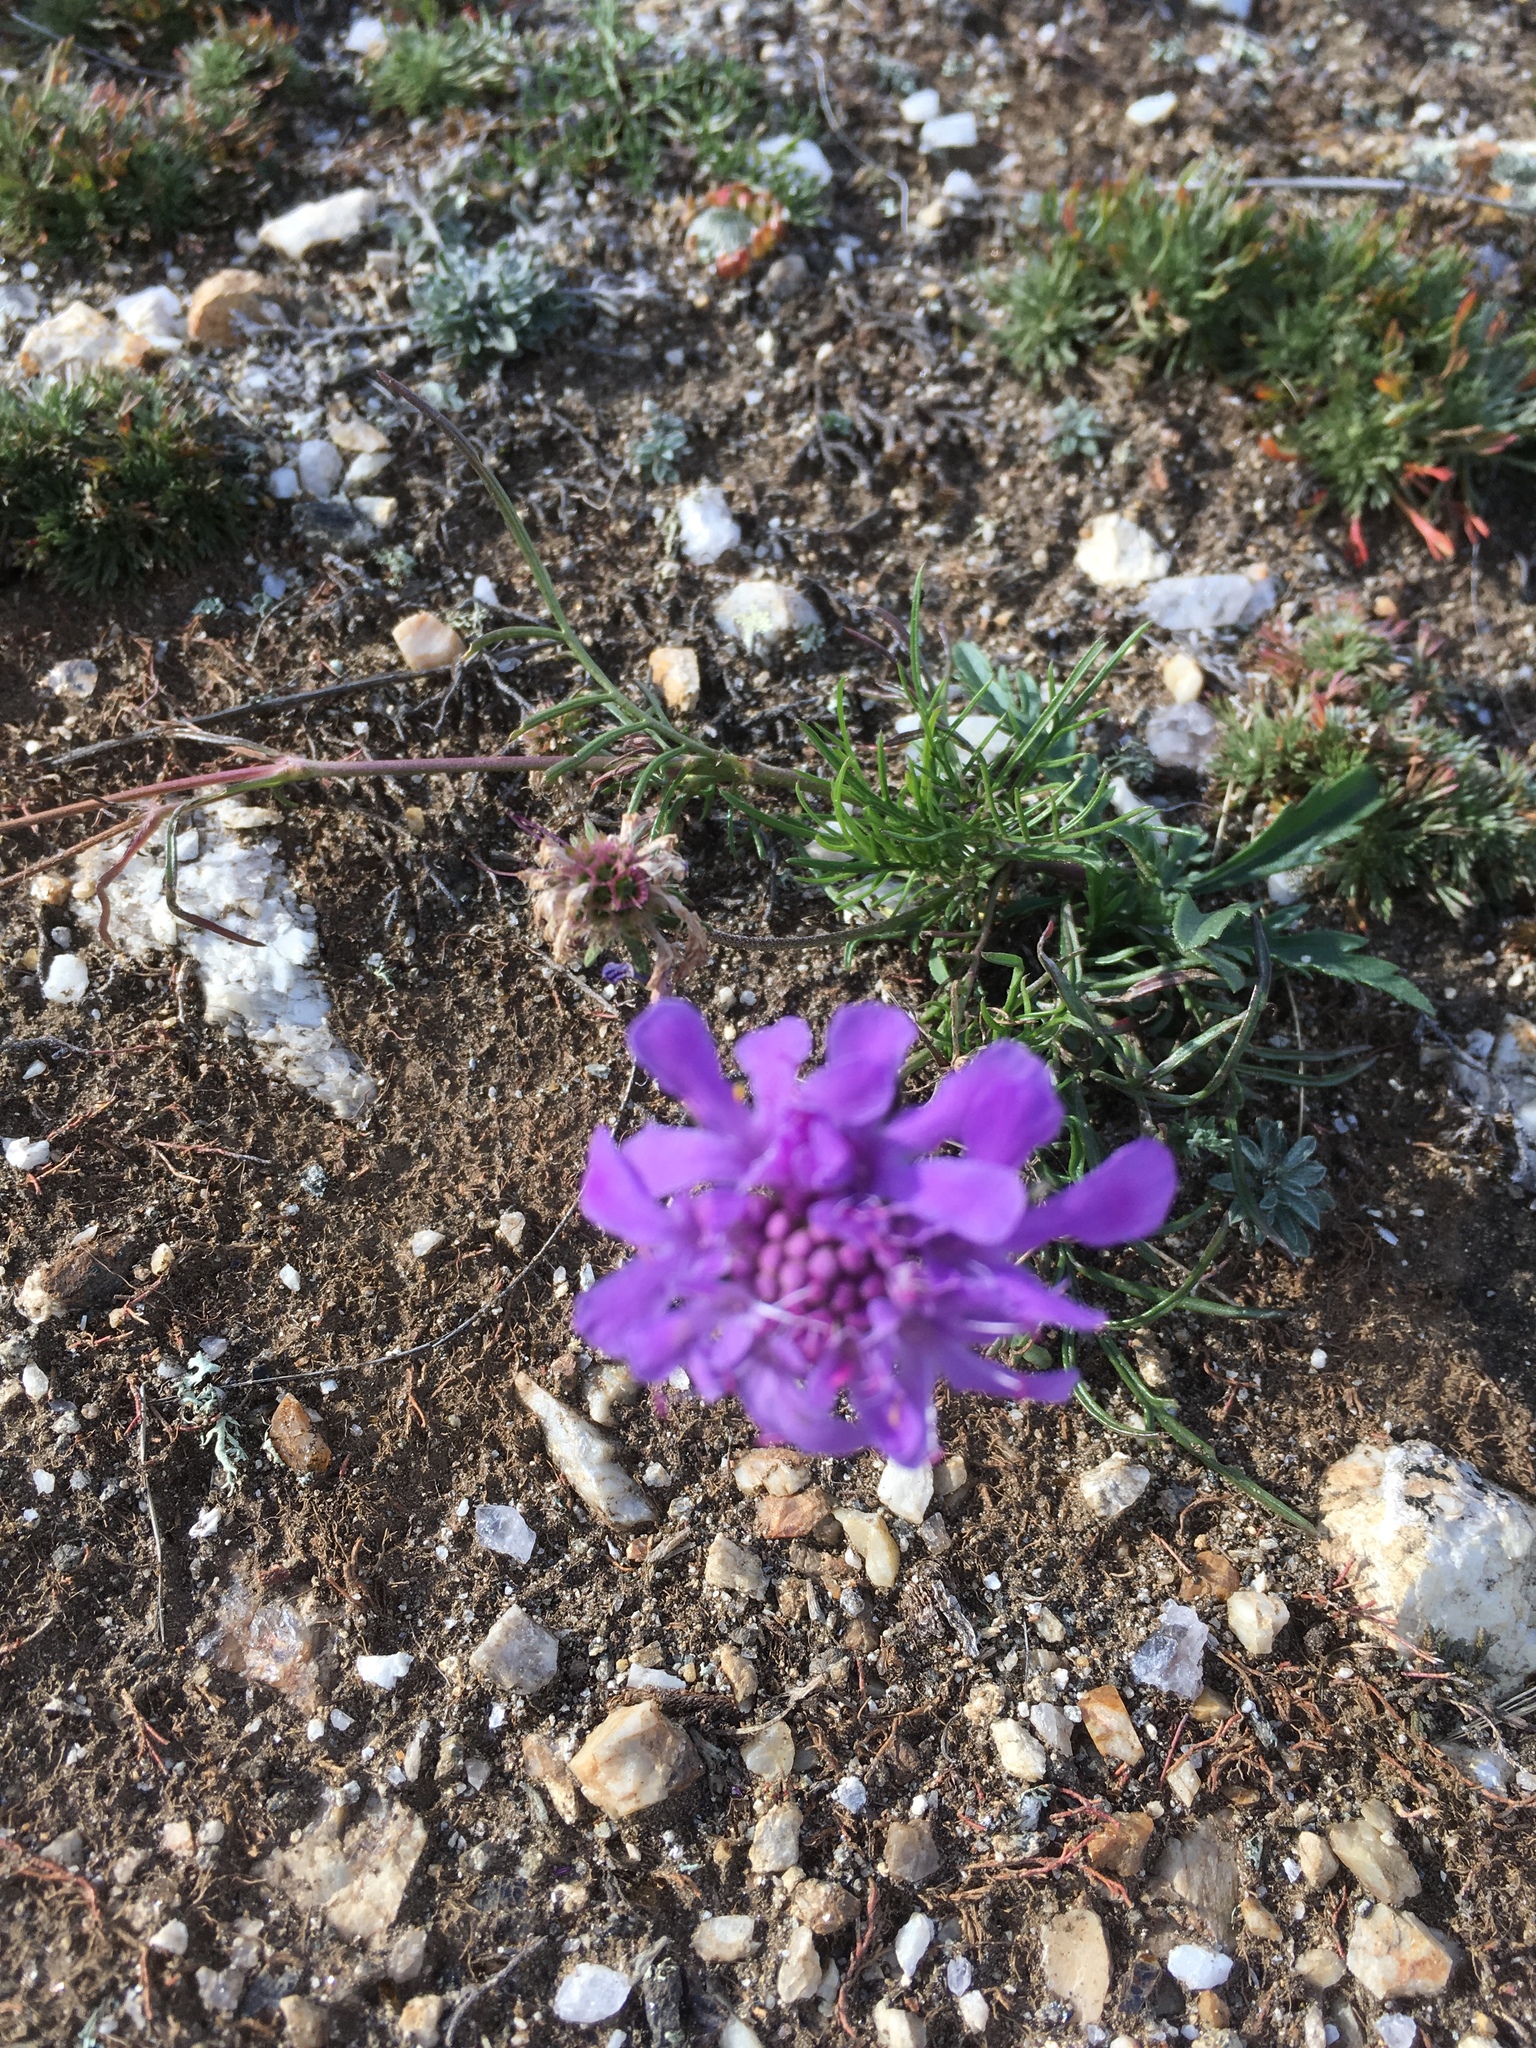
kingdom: Plantae
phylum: Tracheophyta
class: Magnoliopsida
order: Dipsacales
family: Caprifoliaceae
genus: Scabiosa
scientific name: Scabiosa comosa
